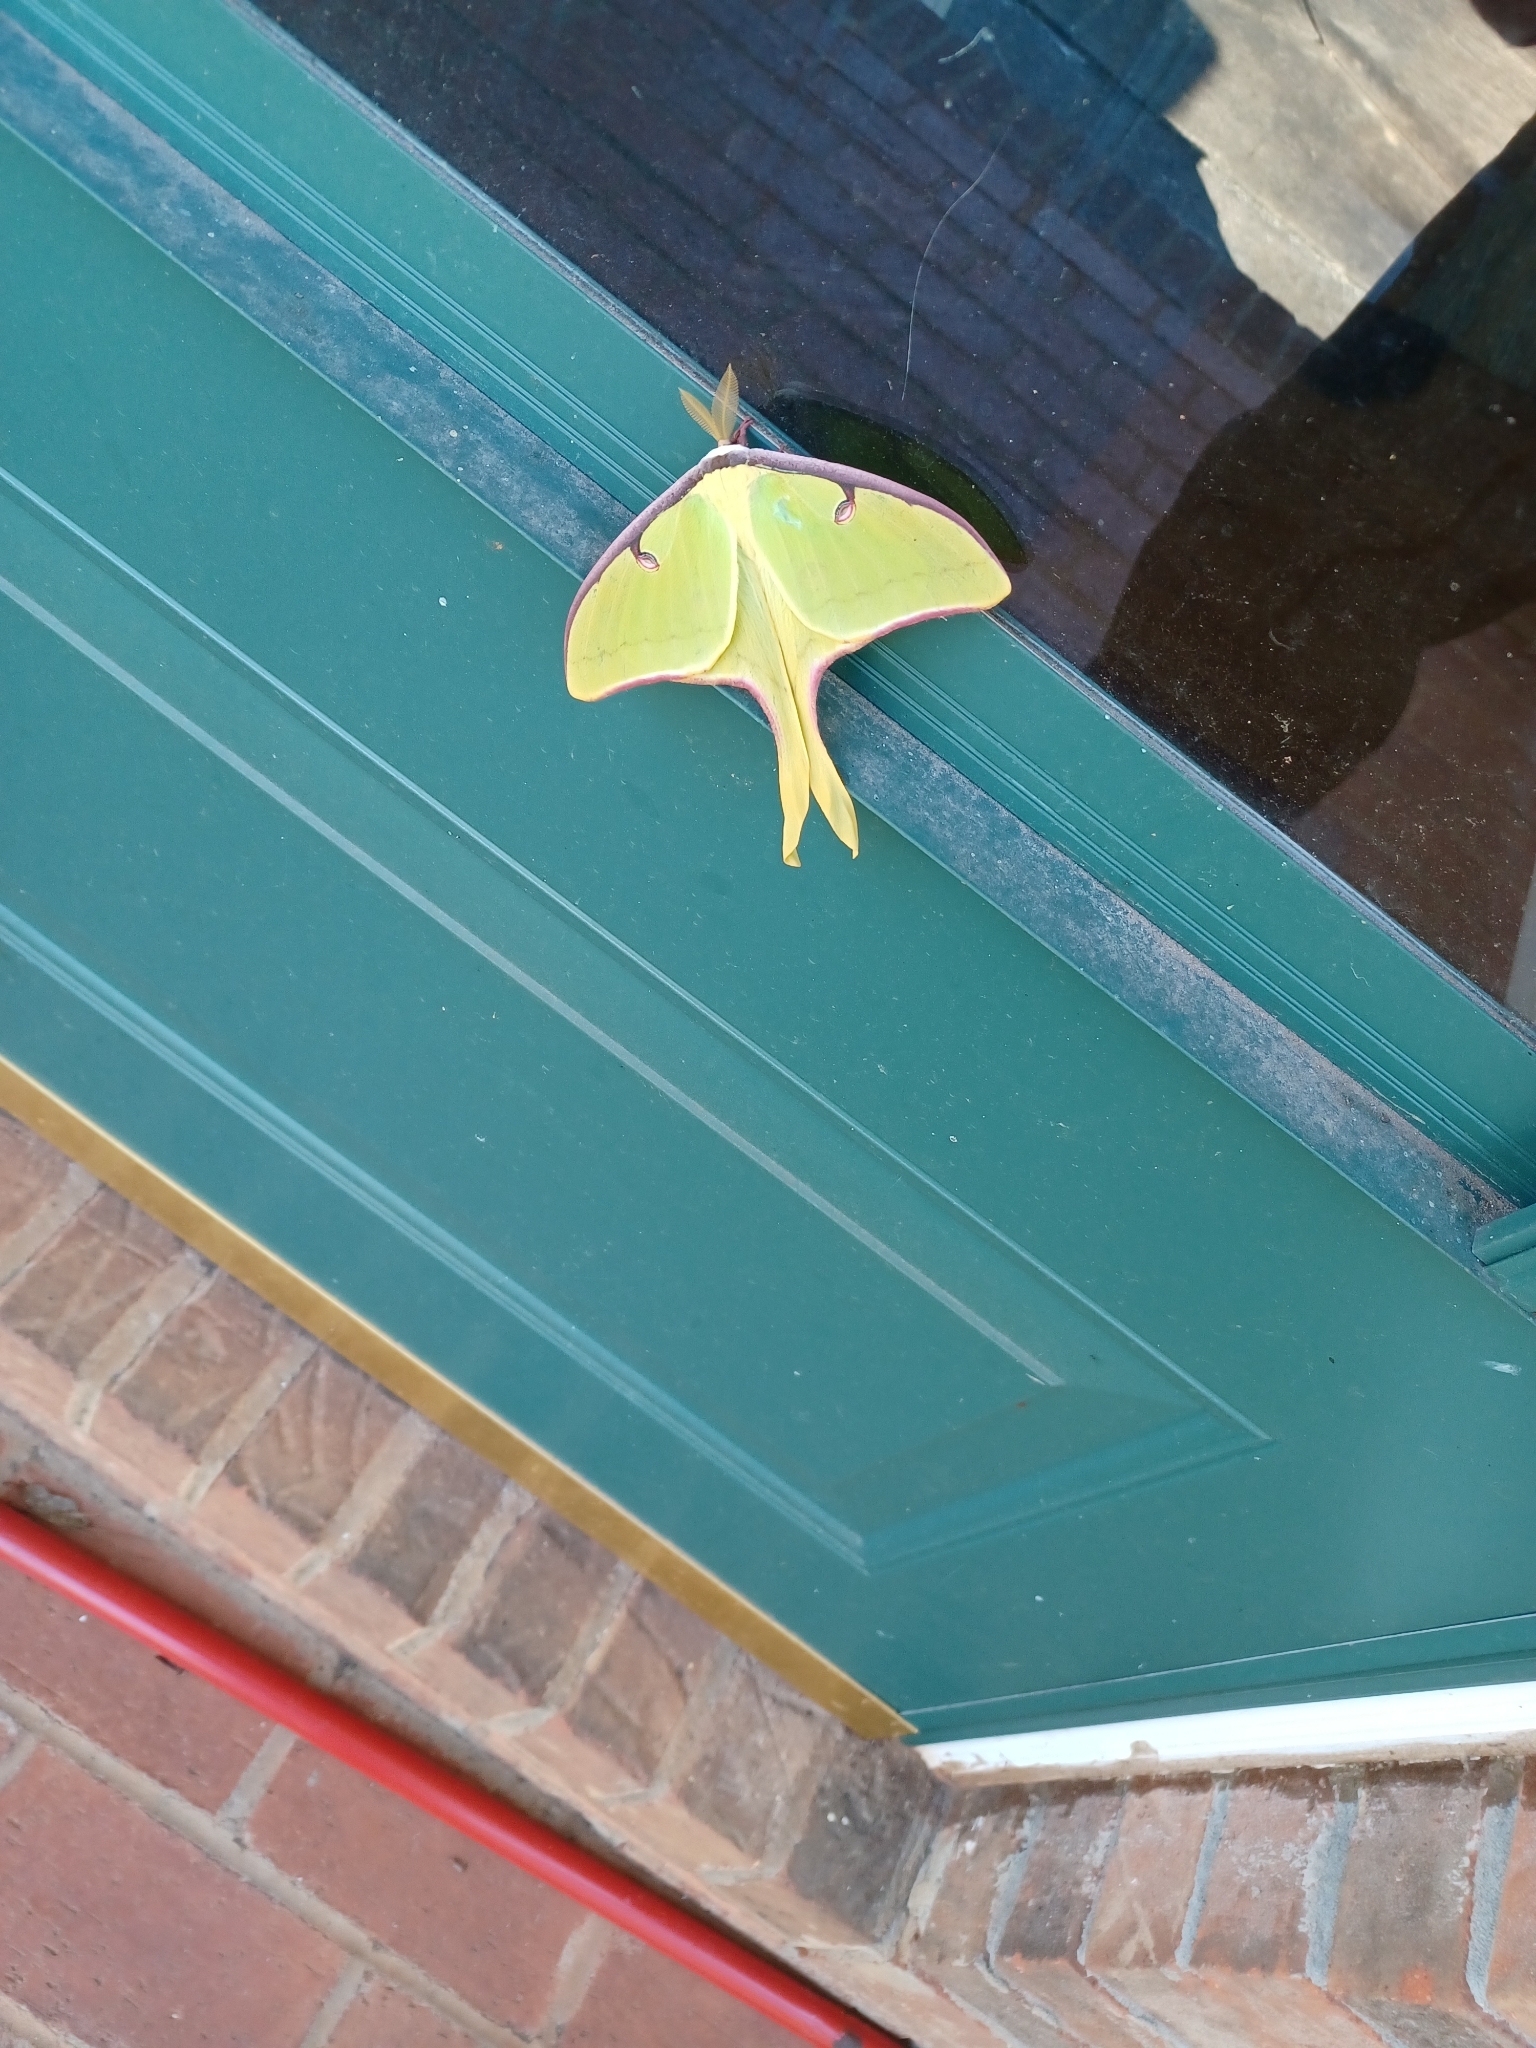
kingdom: Animalia
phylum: Arthropoda
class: Insecta
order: Lepidoptera
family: Saturniidae
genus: Actias
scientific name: Actias luna
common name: Luna moth
